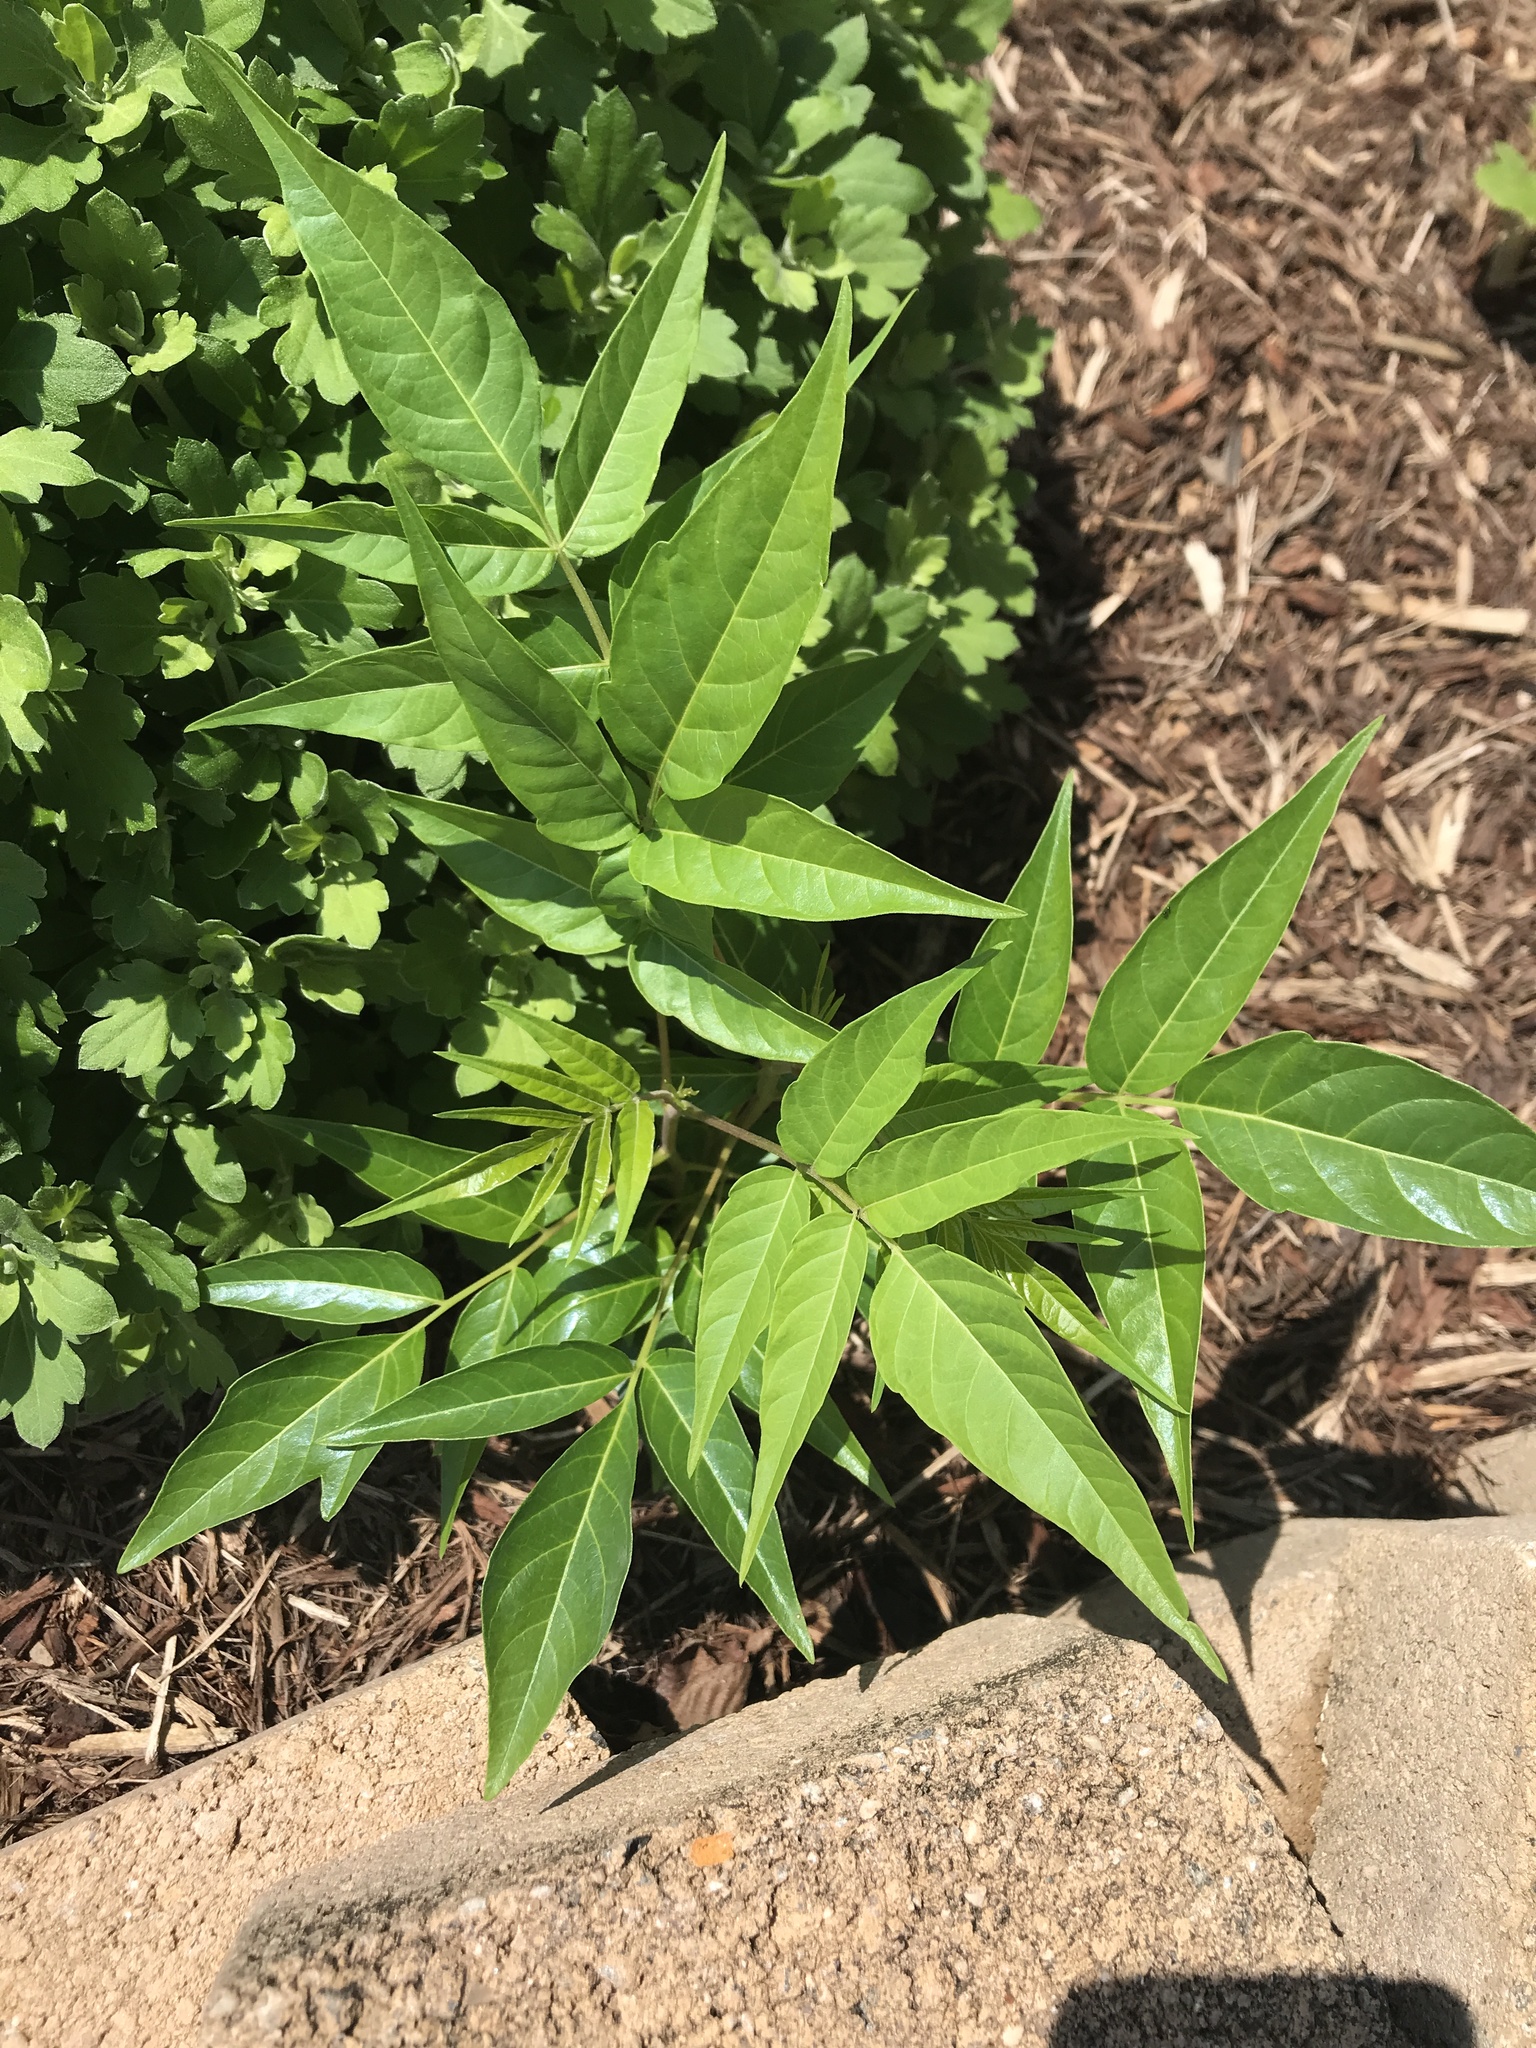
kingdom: Plantae
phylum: Tracheophyta
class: Magnoliopsida
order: Sapindales
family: Simaroubaceae
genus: Ailanthus
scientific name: Ailanthus altissima
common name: Tree-of-heaven
